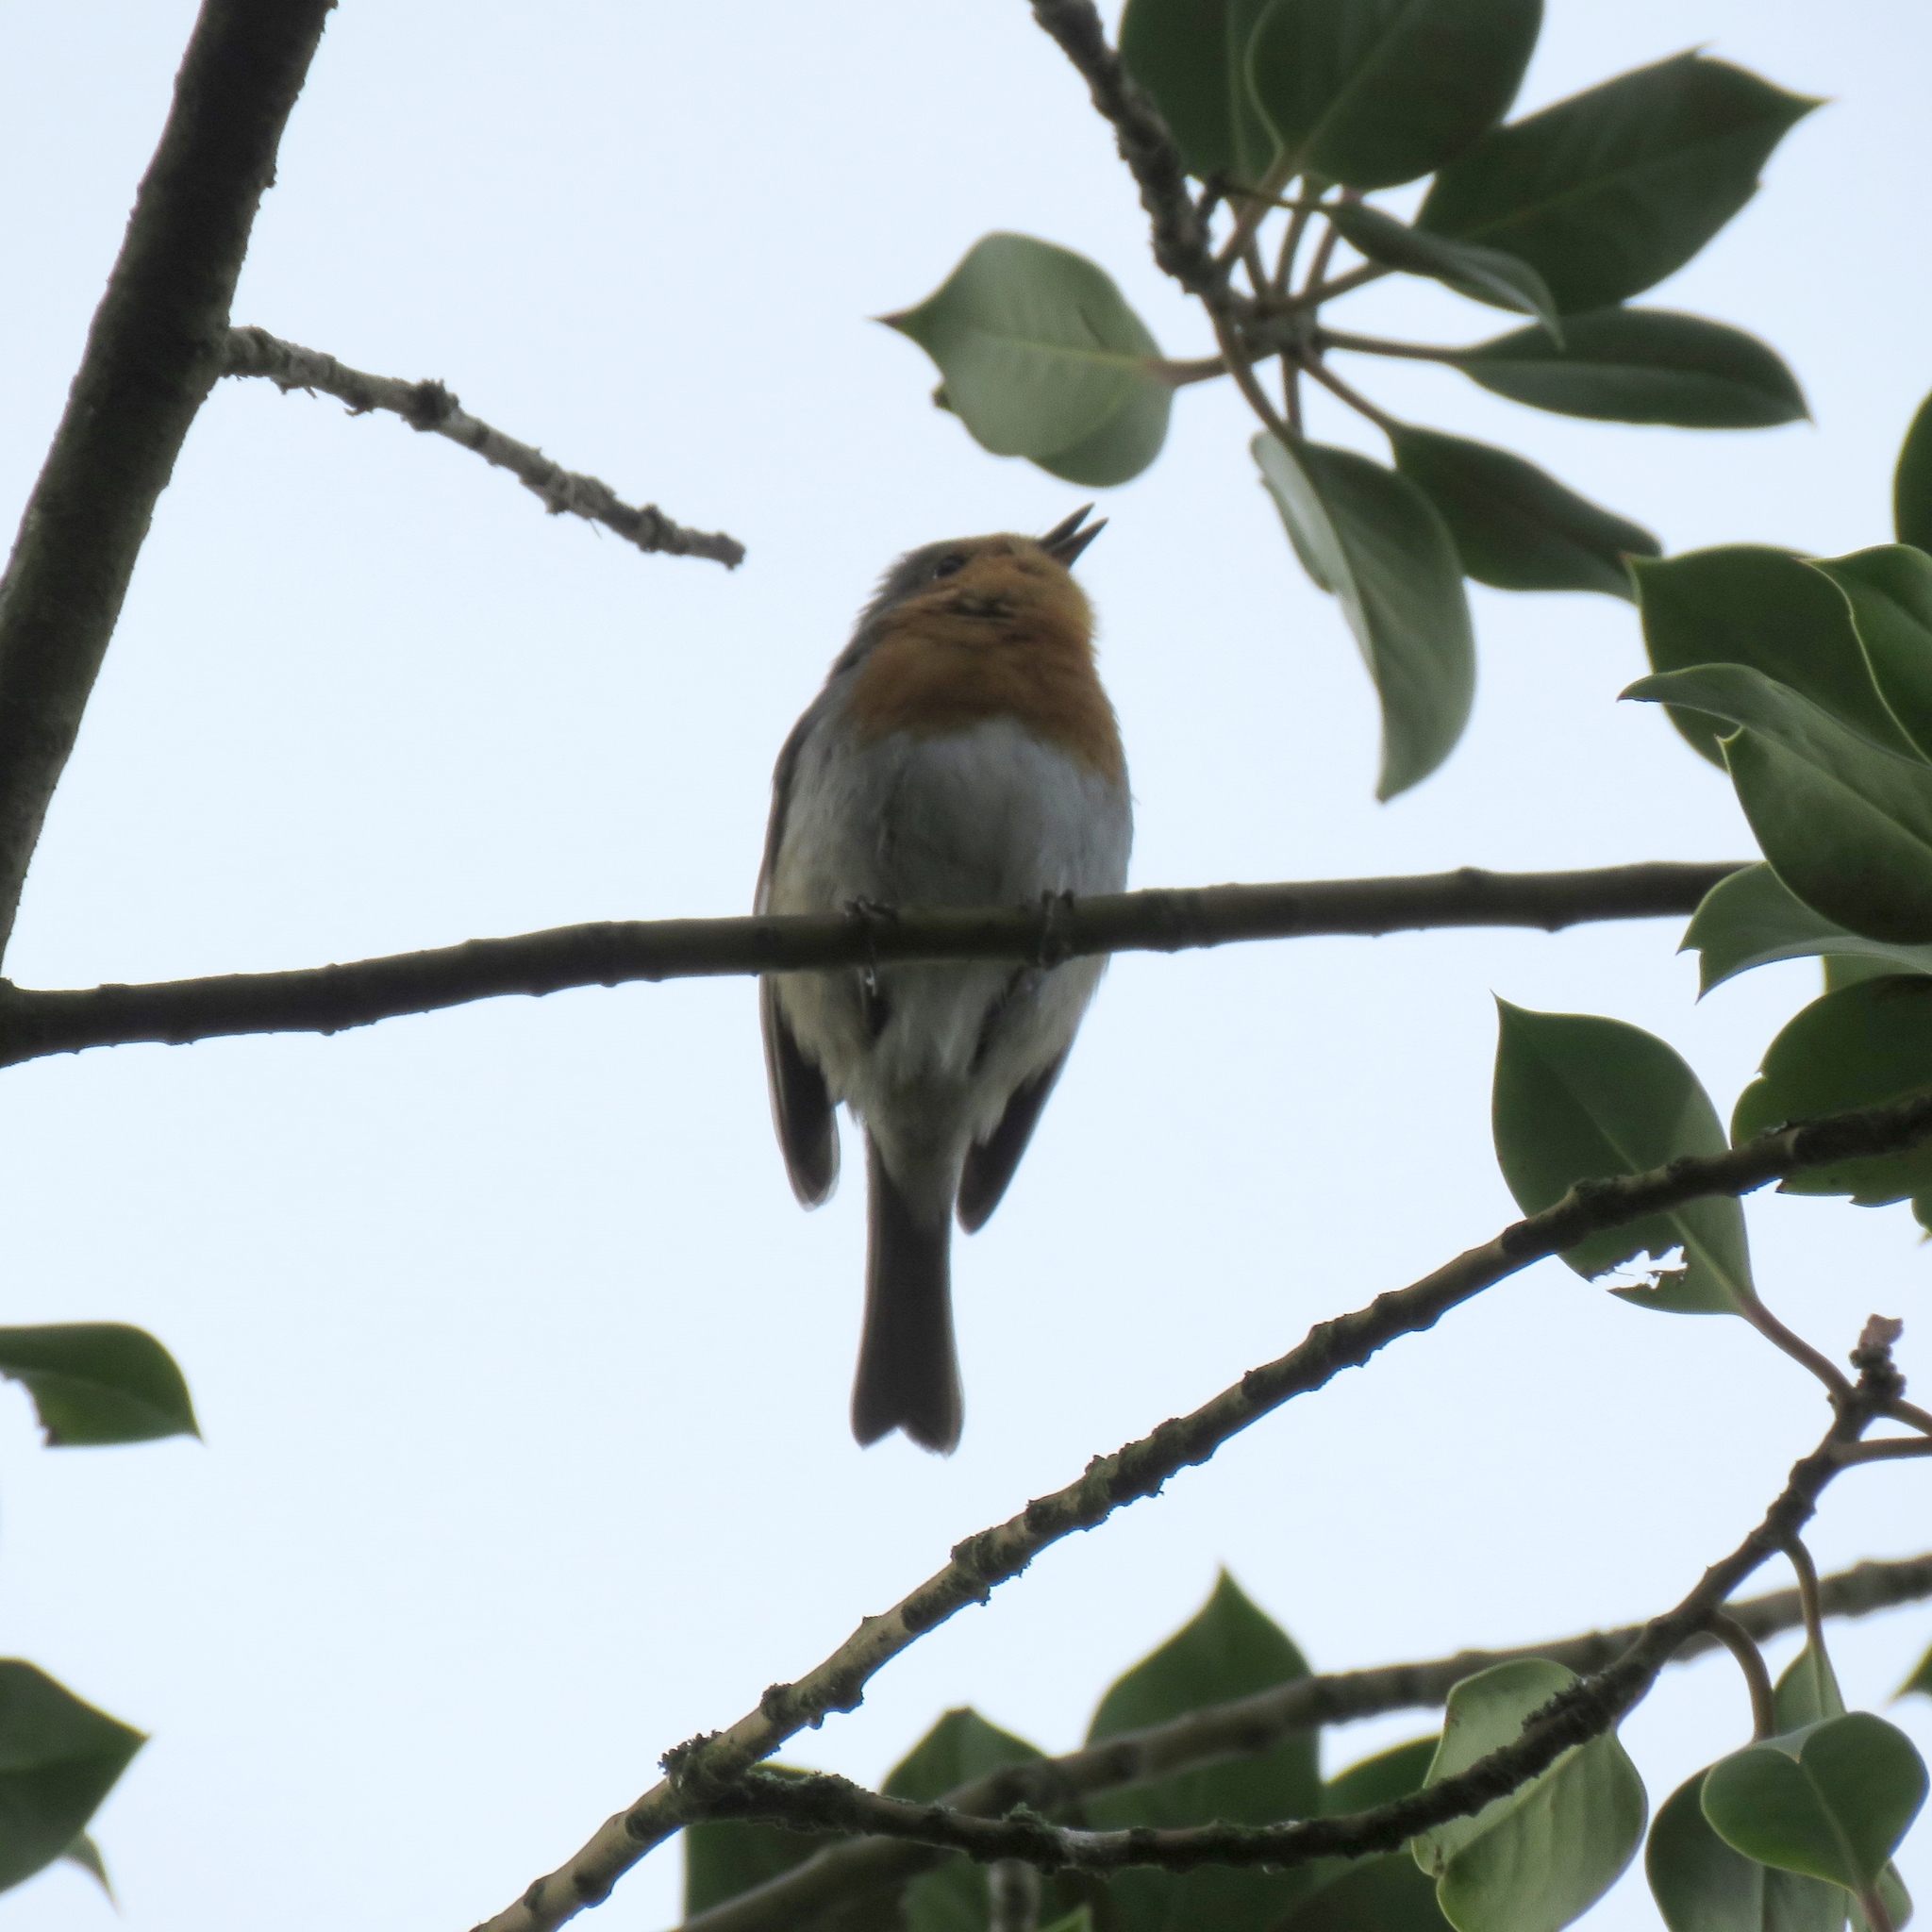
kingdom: Animalia
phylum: Chordata
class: Aves
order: Passeriformes
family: Muscicapidae
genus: Erithacus
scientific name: Erithacus rubecula
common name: European robin
